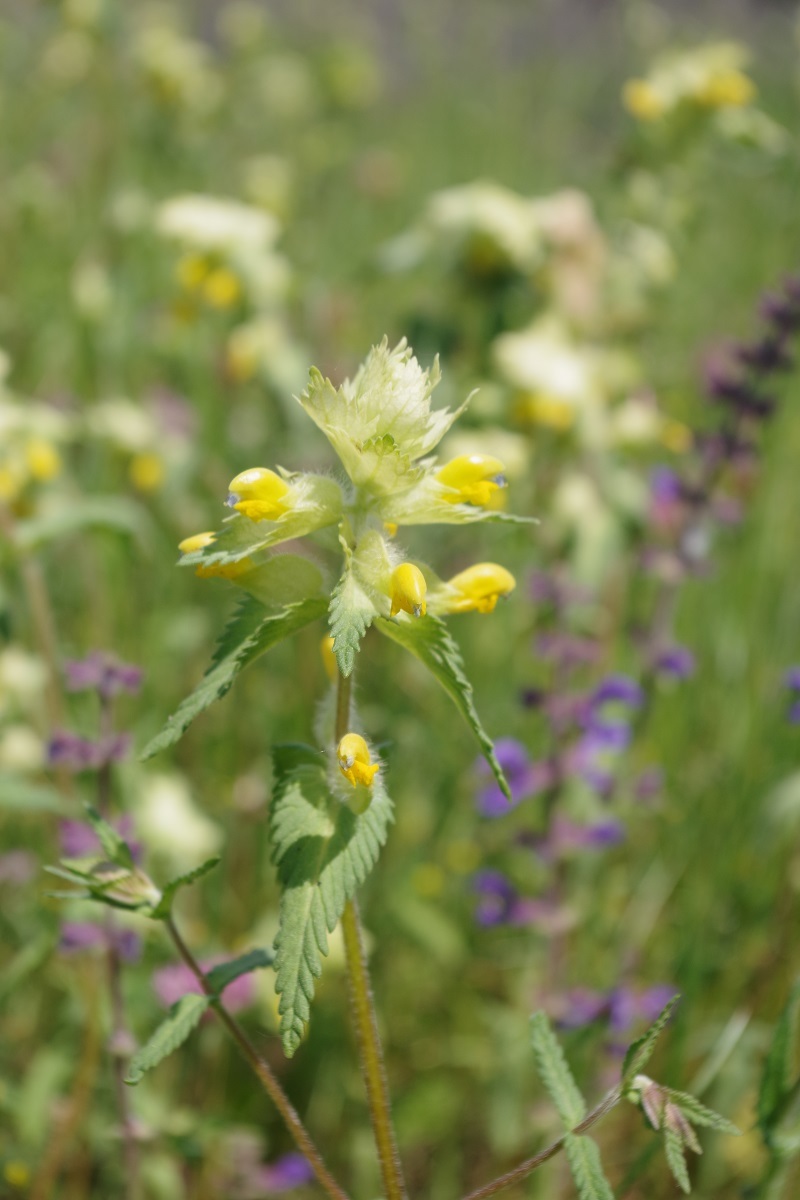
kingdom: Plantae
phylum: Tracheophyta
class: Magnoliopsida
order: Lamiales
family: Orobanchaceae
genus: Rhinanthus
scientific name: Rhinanthus alectorolophus
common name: Greater yellow-rattle
